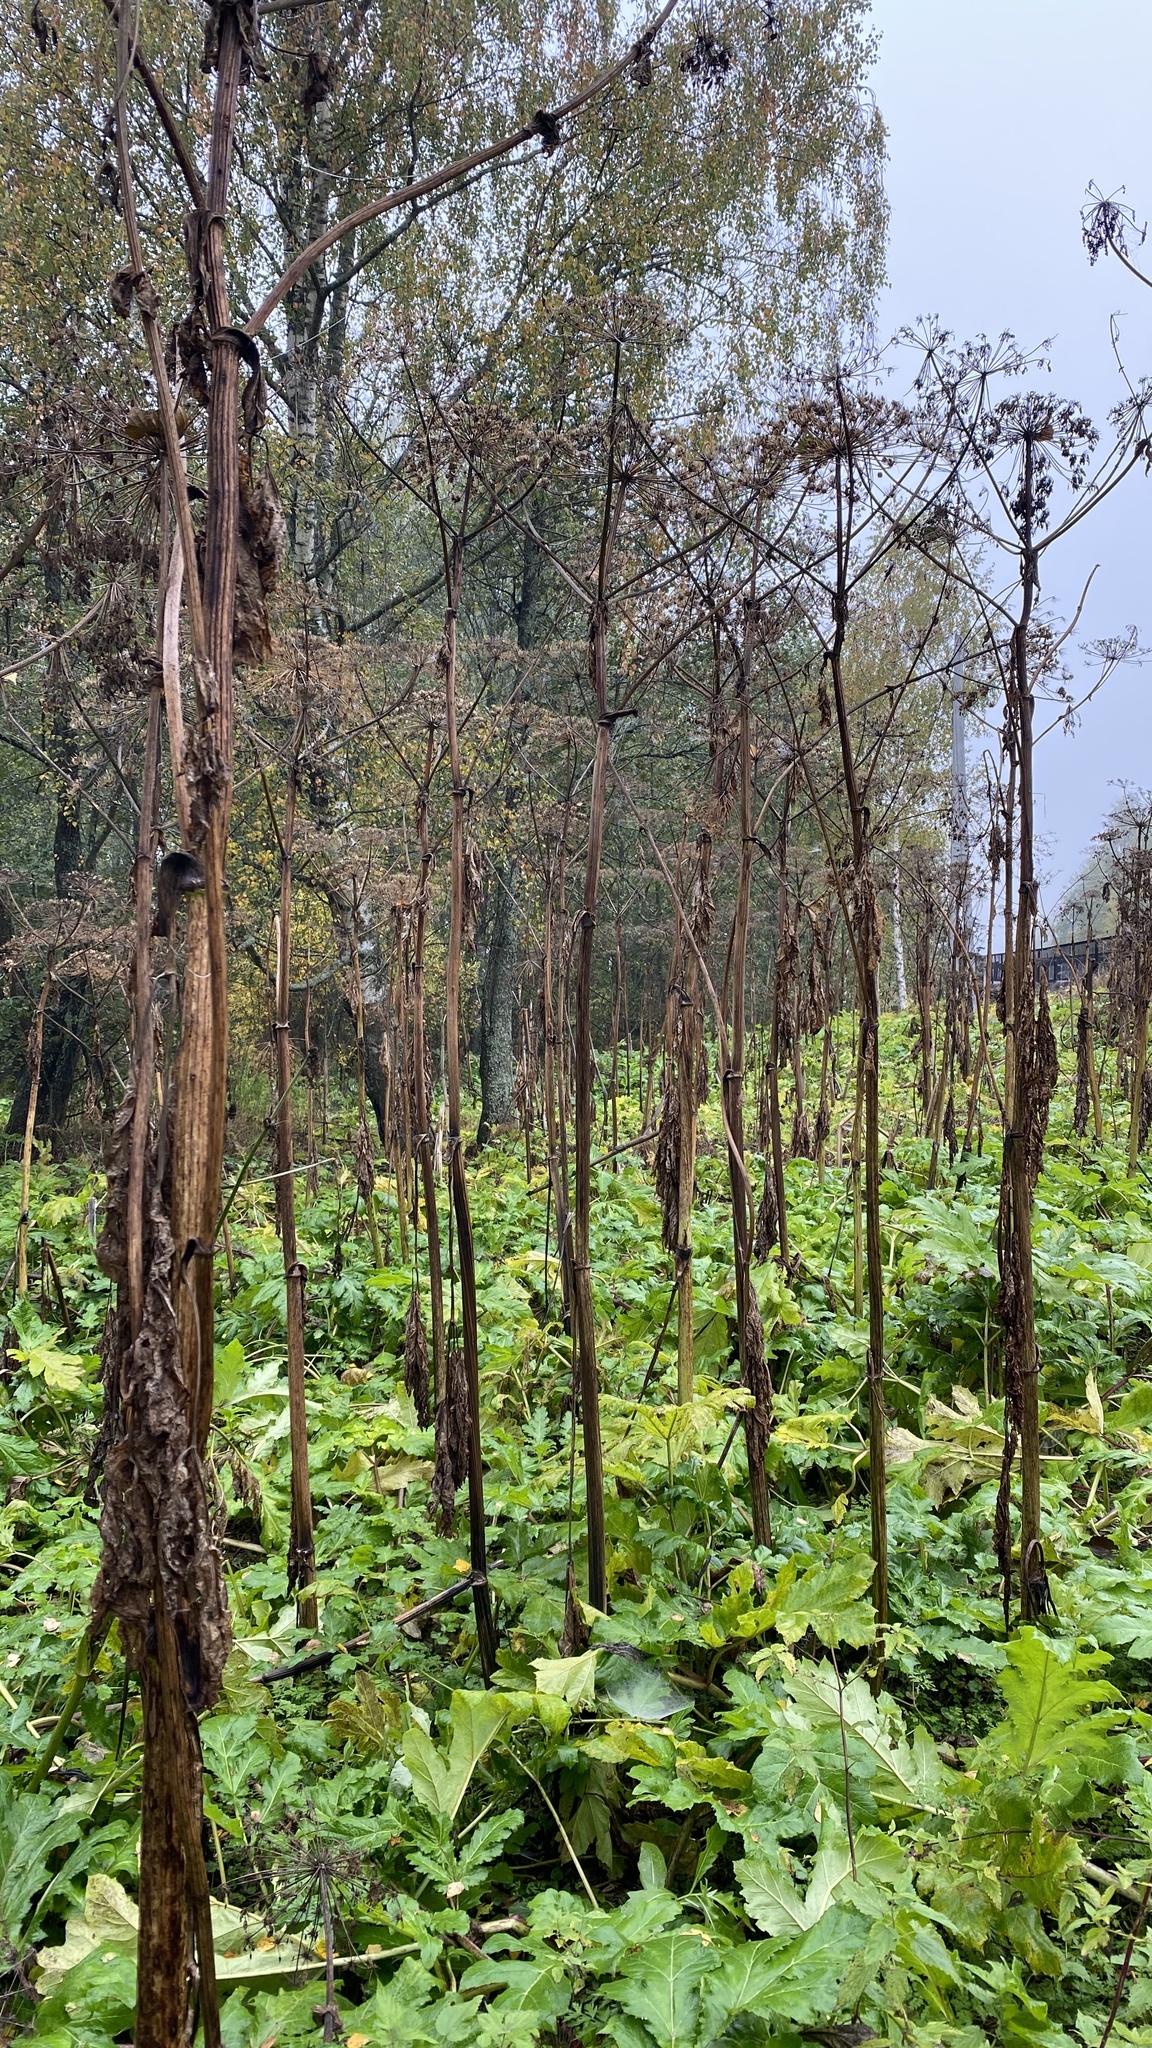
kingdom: Plantae
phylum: Tracheophyta
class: Magnoliopsida
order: Apiales
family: Apiaceae
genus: Heracleum
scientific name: Heracleum sosnowskyi
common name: Sosnowsky's hogweed
